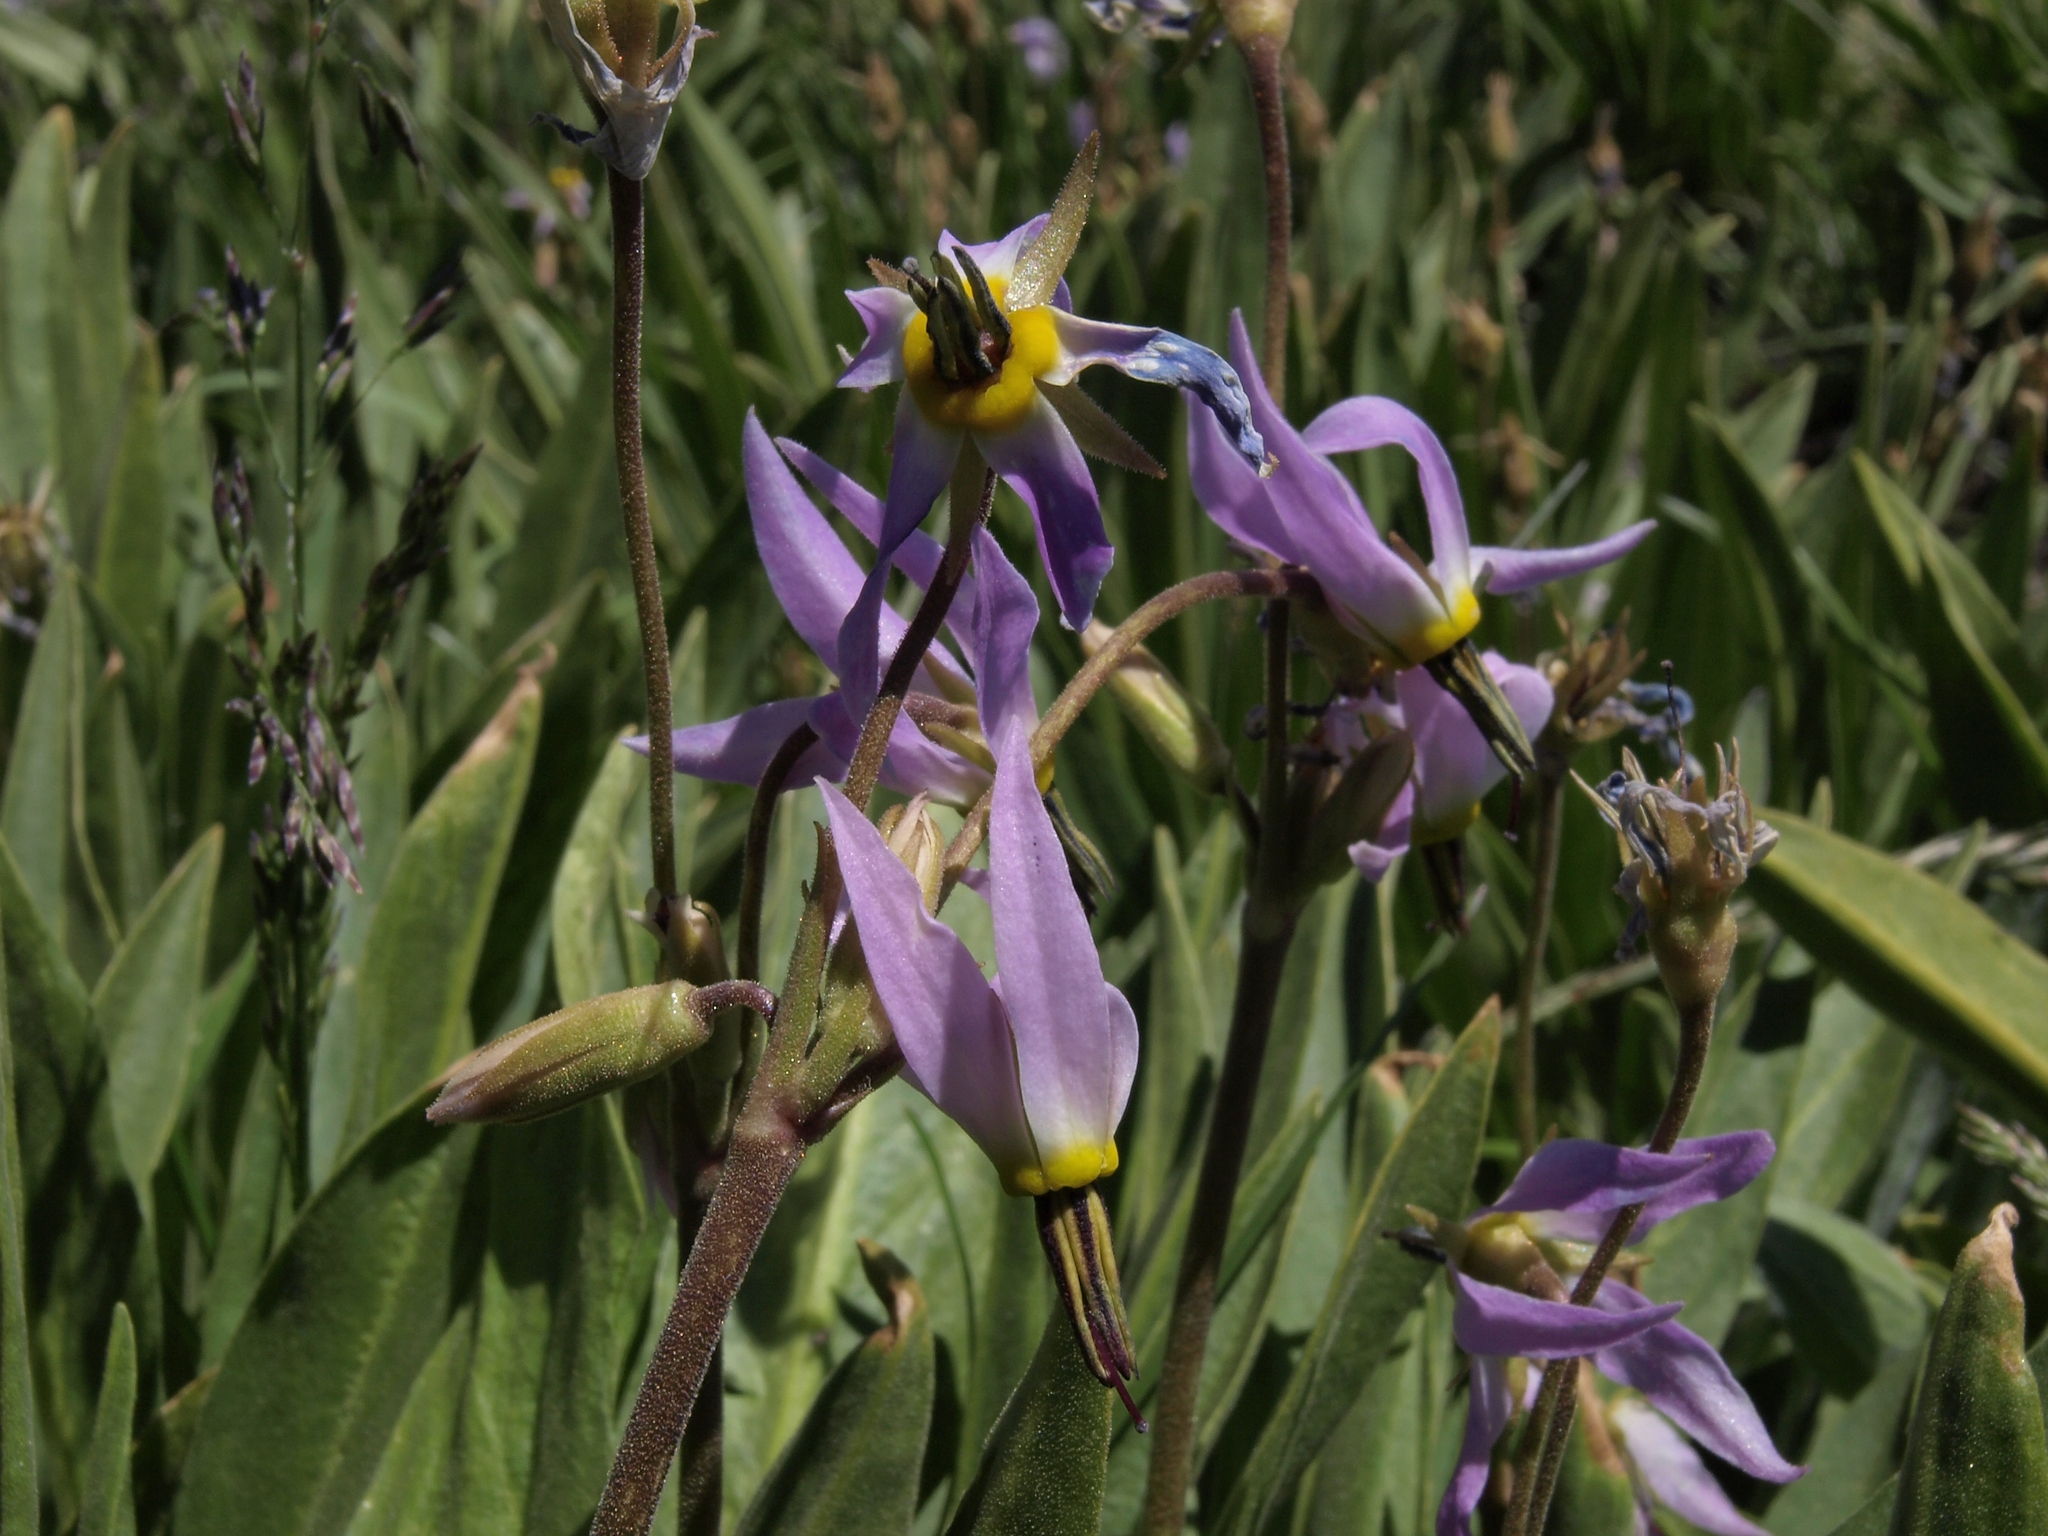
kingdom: Plantae
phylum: Tracheophyta
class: Magnoliopsida
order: Ericales
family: Primulaceae
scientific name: Primulaceae
